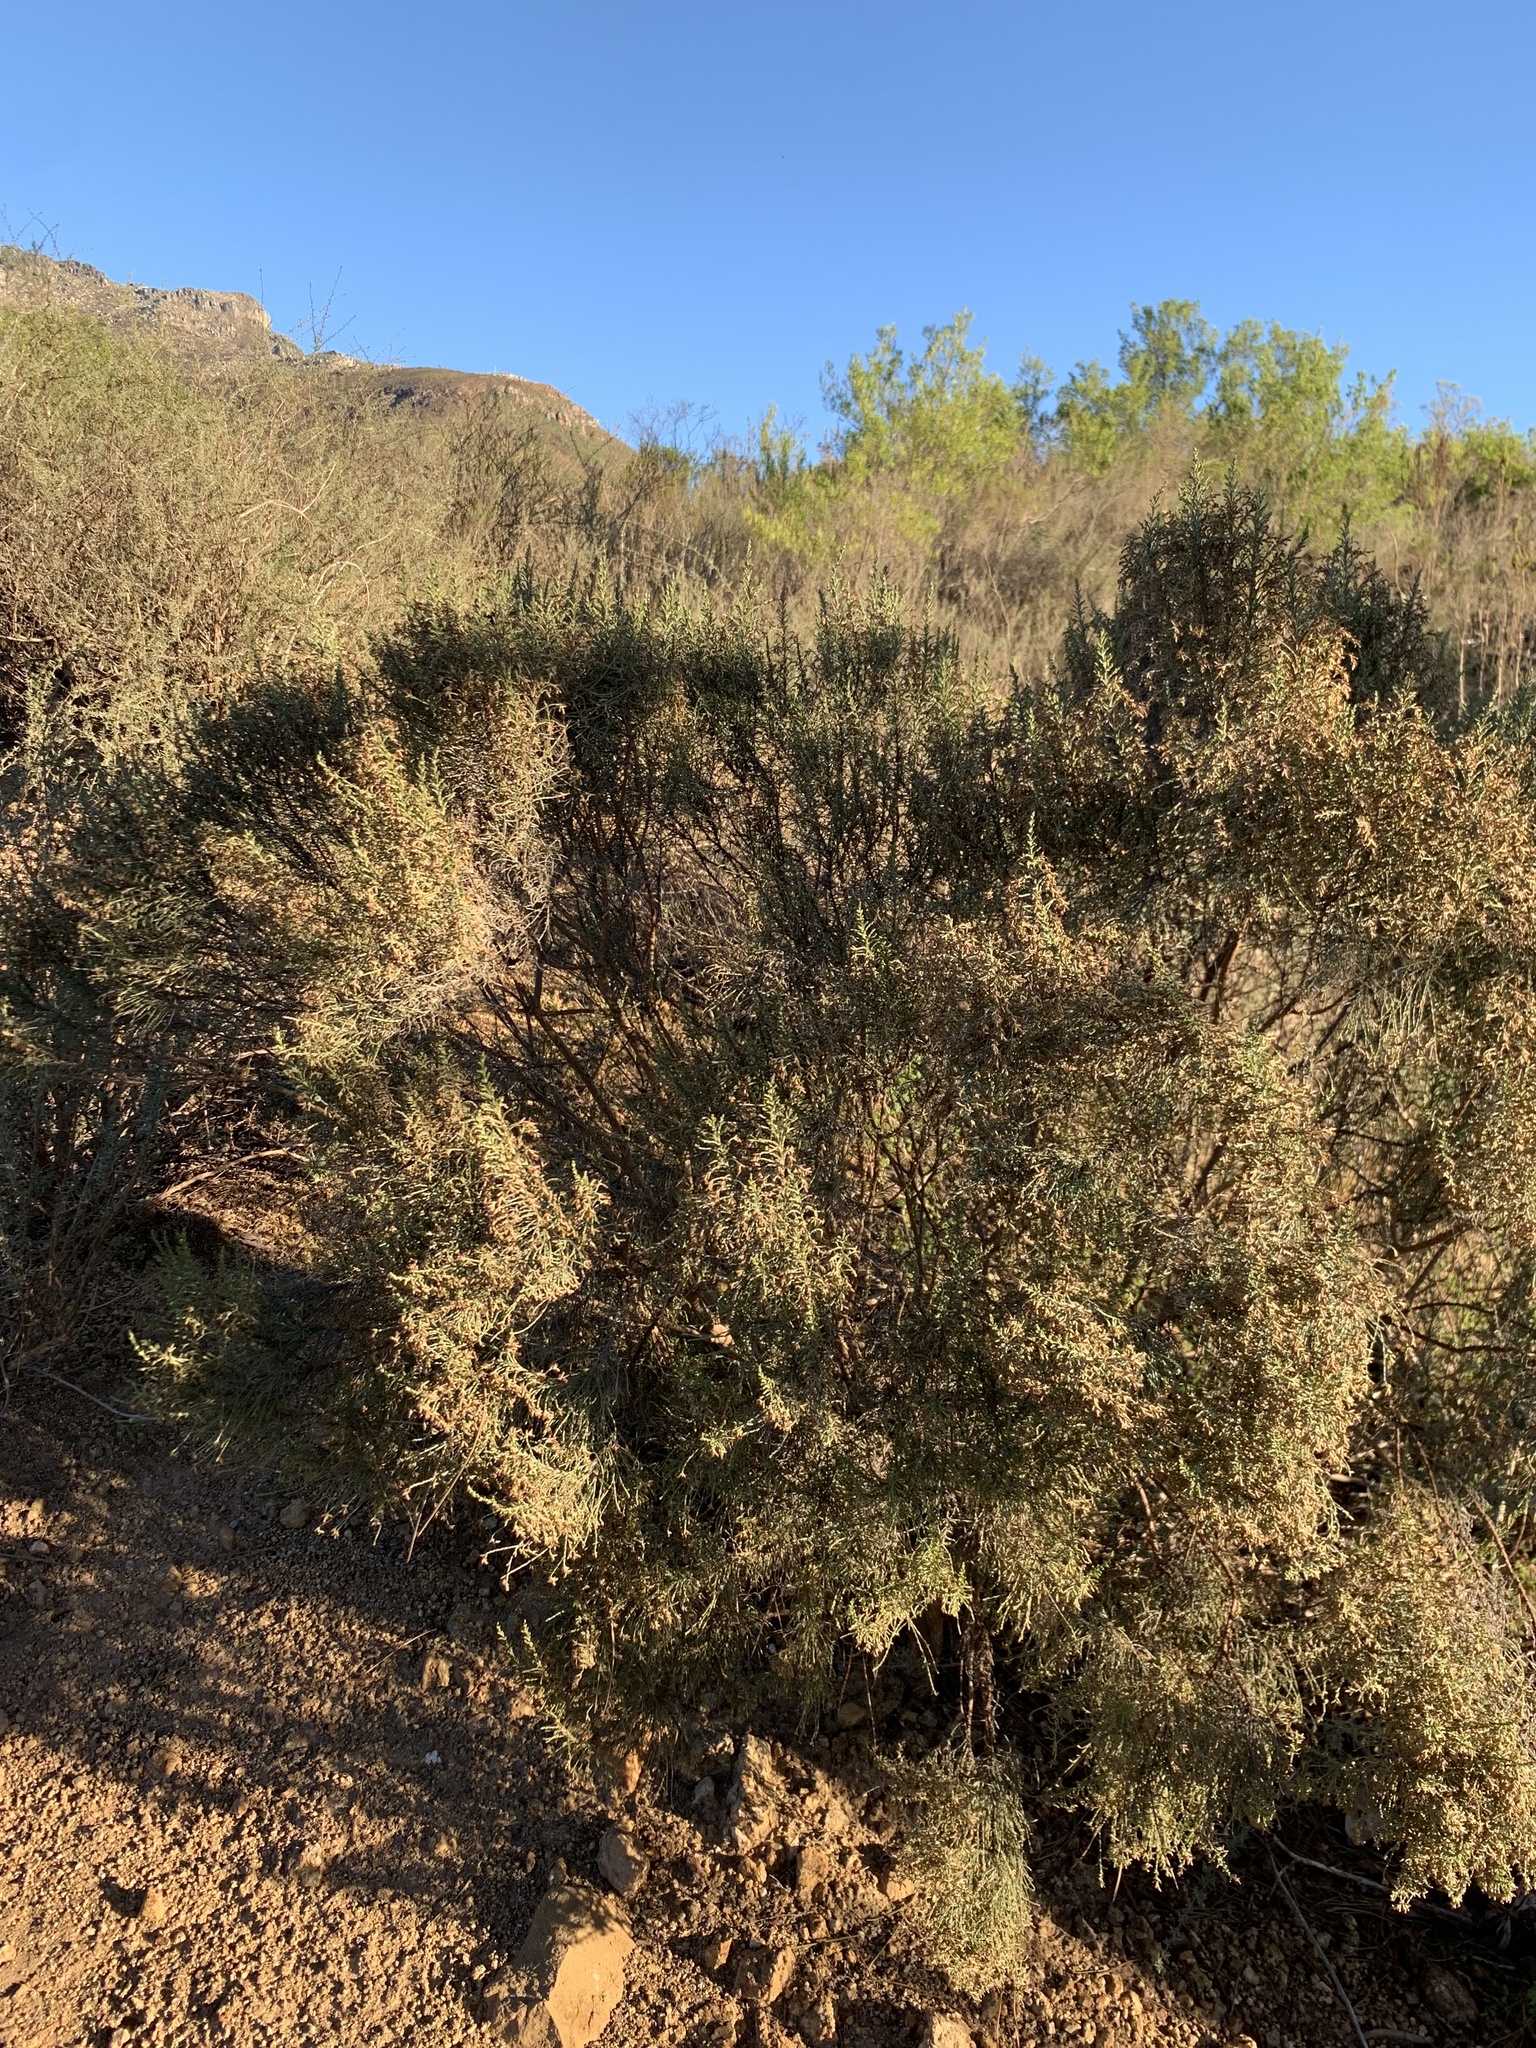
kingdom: Plantae
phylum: Tracheophyta
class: Magnoliopsida
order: Asterales
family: Asteraceae
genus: Dicerothamnus
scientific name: Dicerothamnus rhinocerotis
